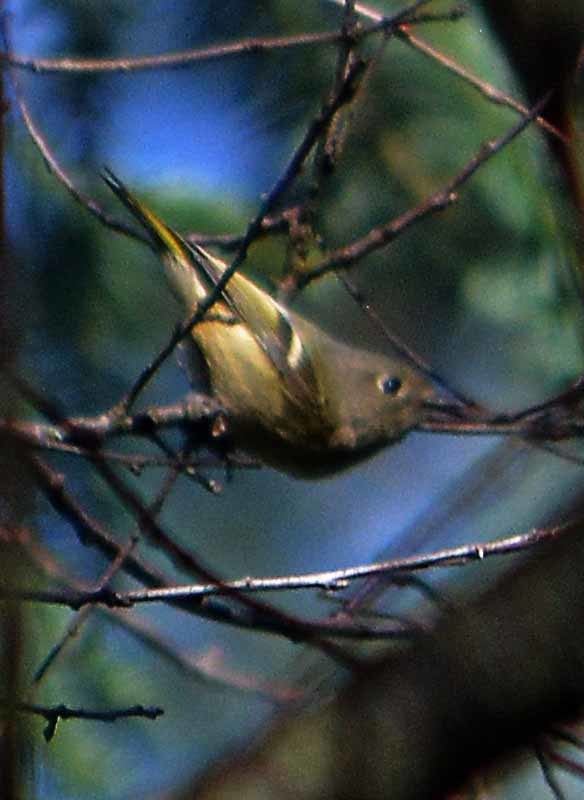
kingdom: Animalia
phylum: Chordata
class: Aves
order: Passeriformes
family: Regulidae
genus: Regulus
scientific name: Regulus calendula
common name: Ruby-crowned kinglet
